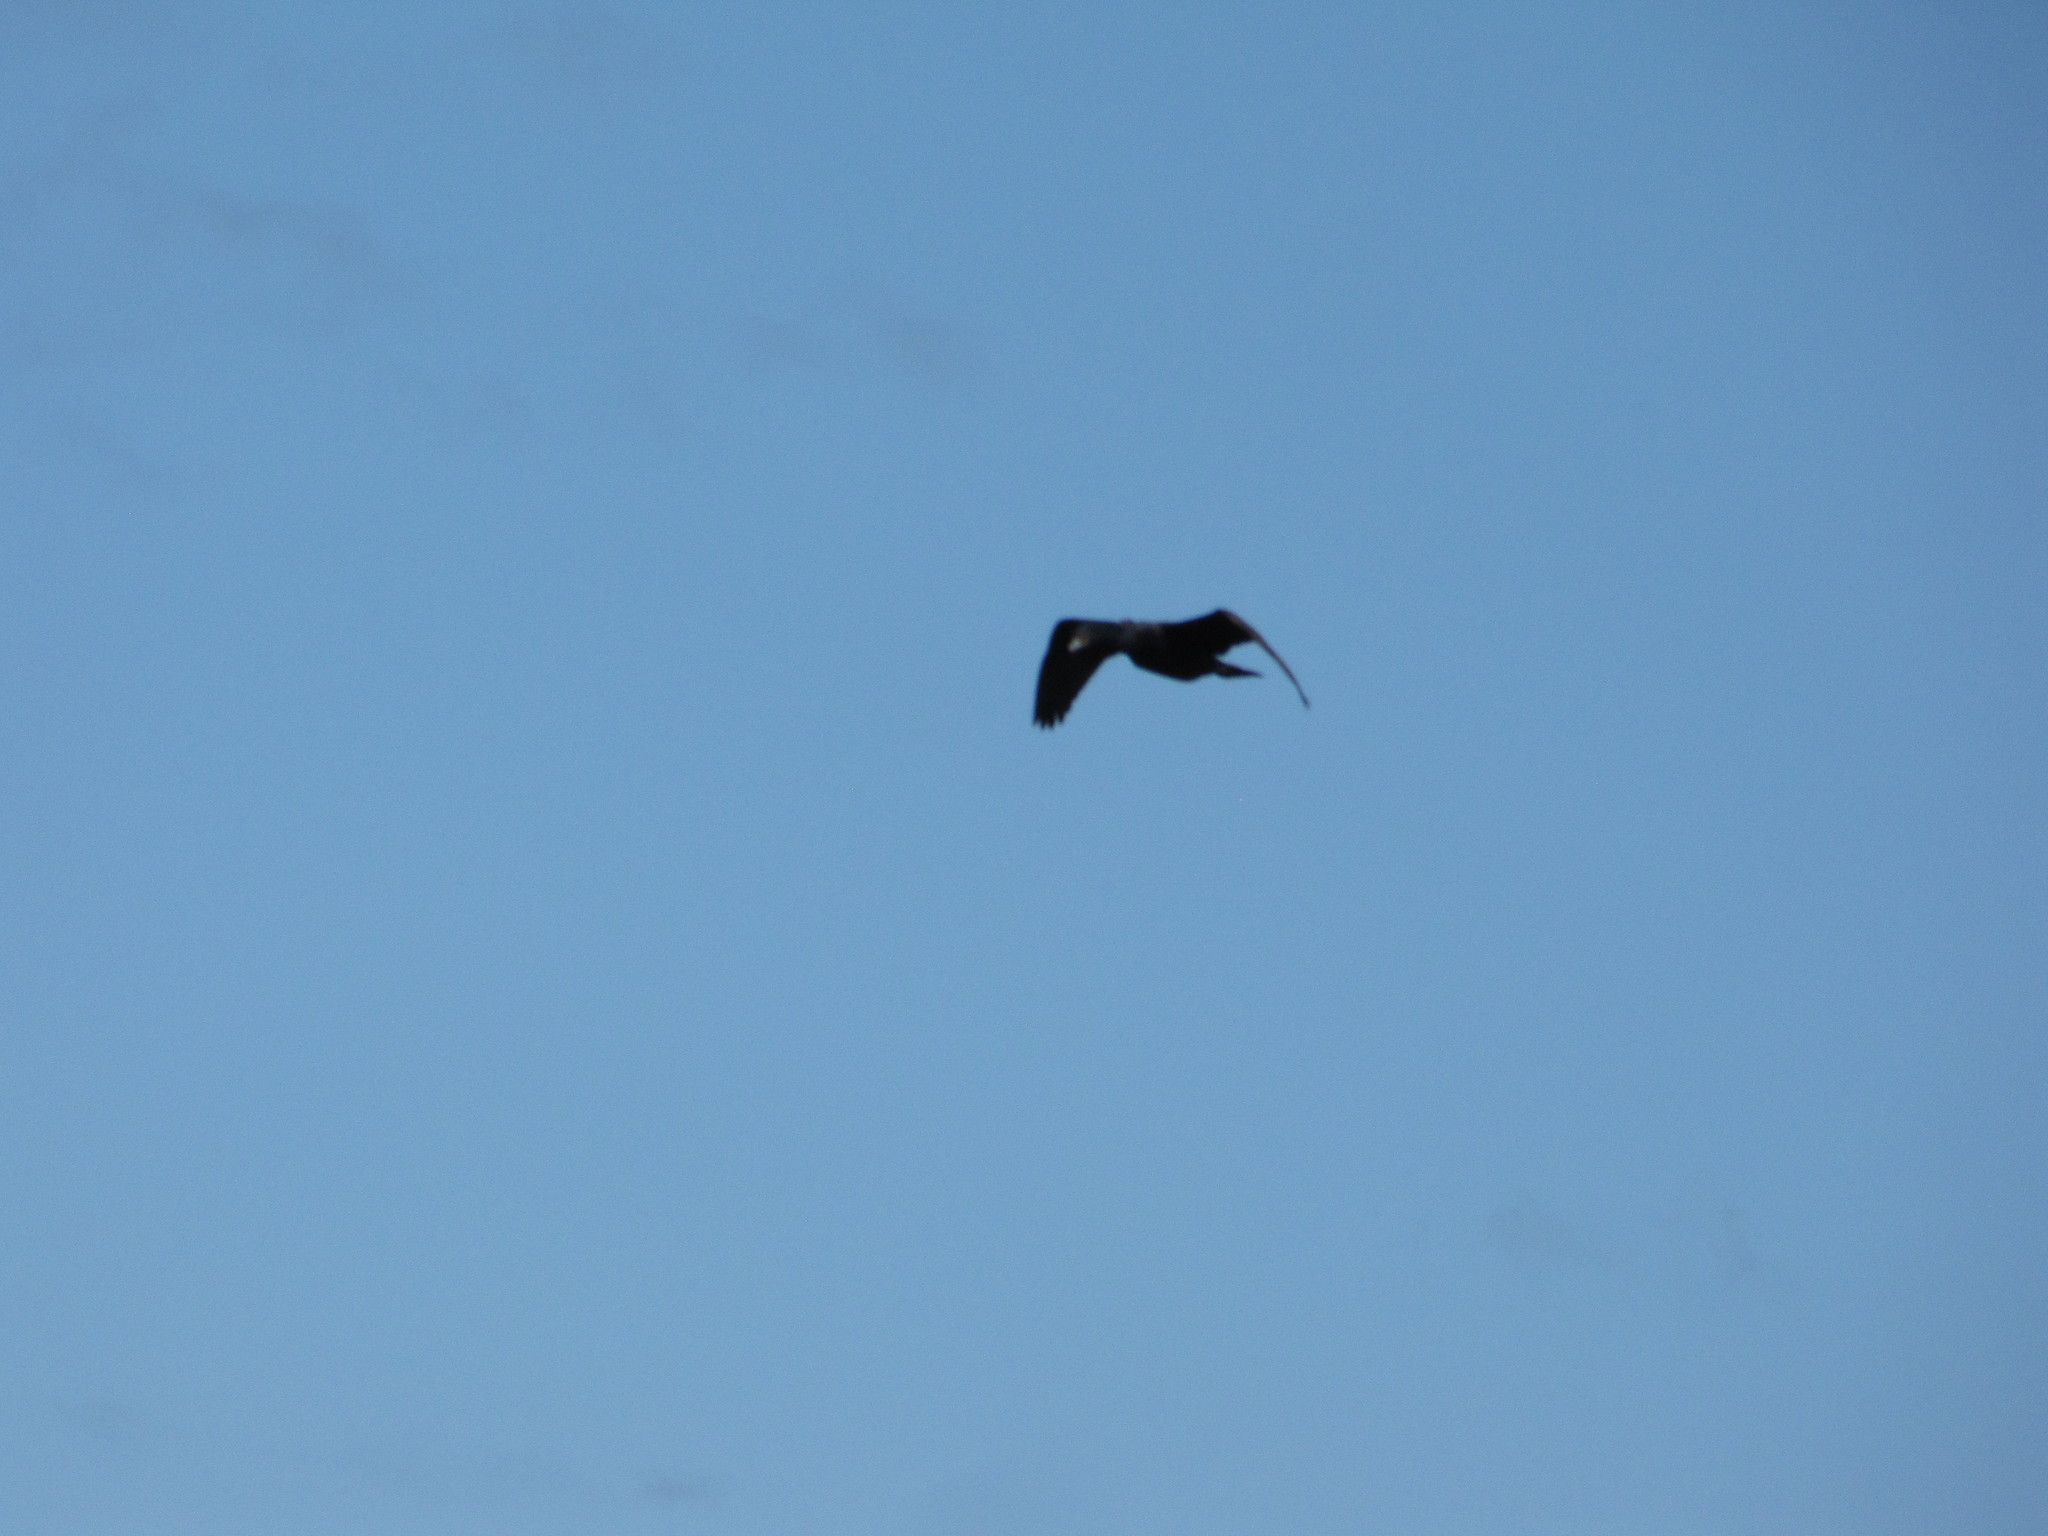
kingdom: Animalia
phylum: Chordata
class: Aves
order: Suliformes
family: Phalacrocoracidae
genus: Phalacrocorax
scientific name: Phalacrocorax auritus
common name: Double-crested cormorant
